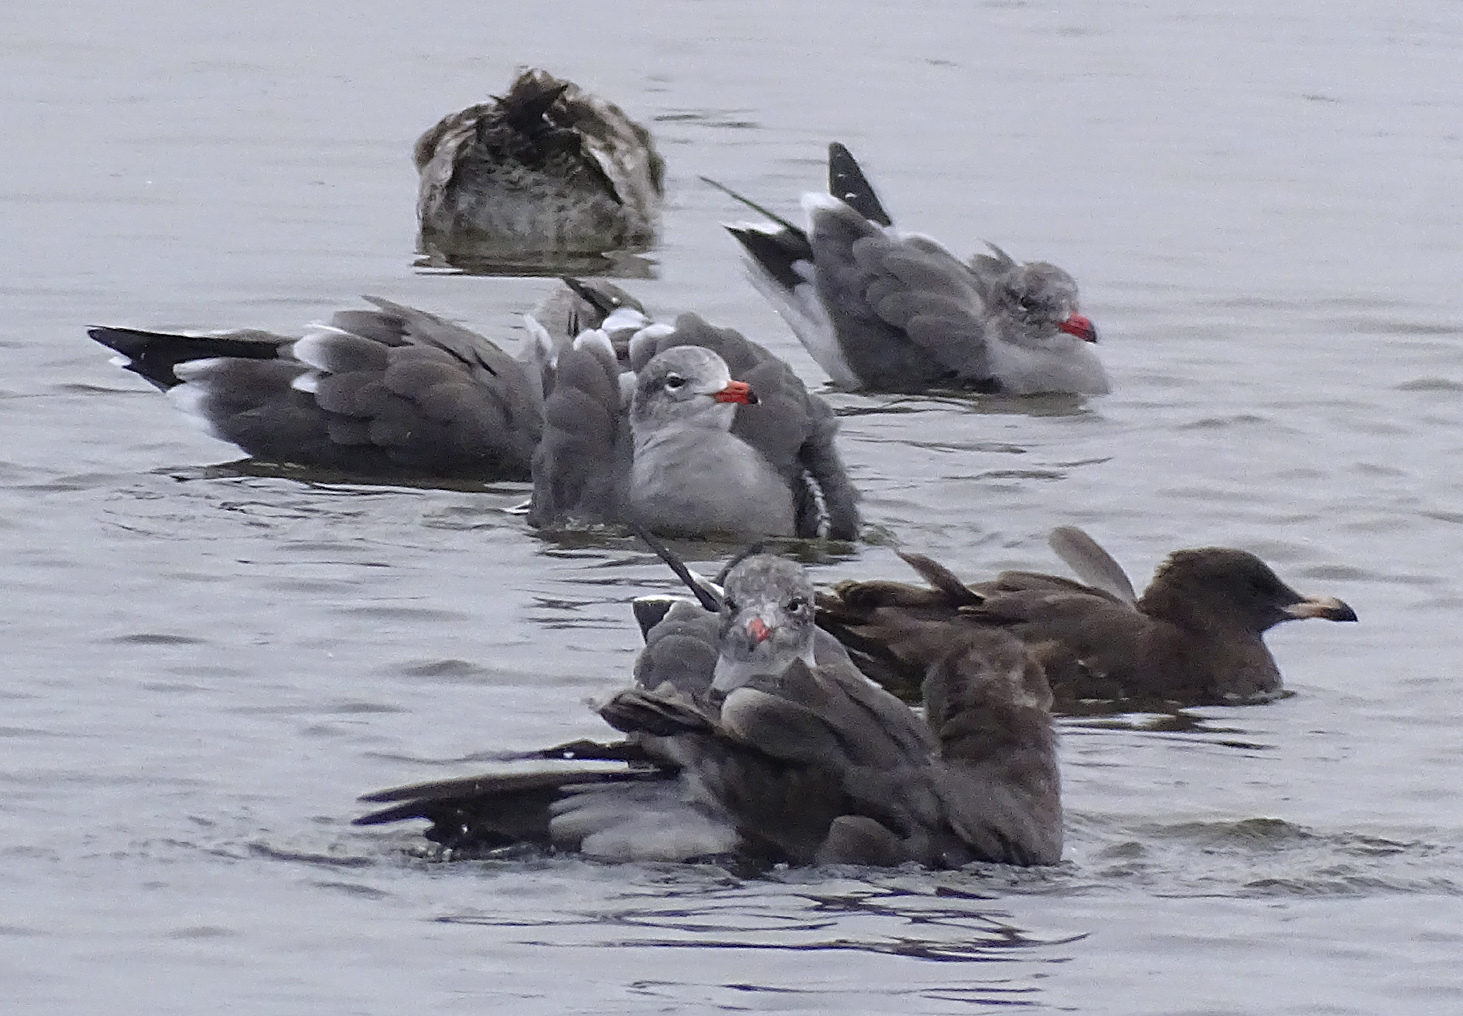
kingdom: Animalia
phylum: Chordata
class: Aves
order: Charadriiformes
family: Laridae
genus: Larus
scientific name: Larus heermanni
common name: Heermann's gull
